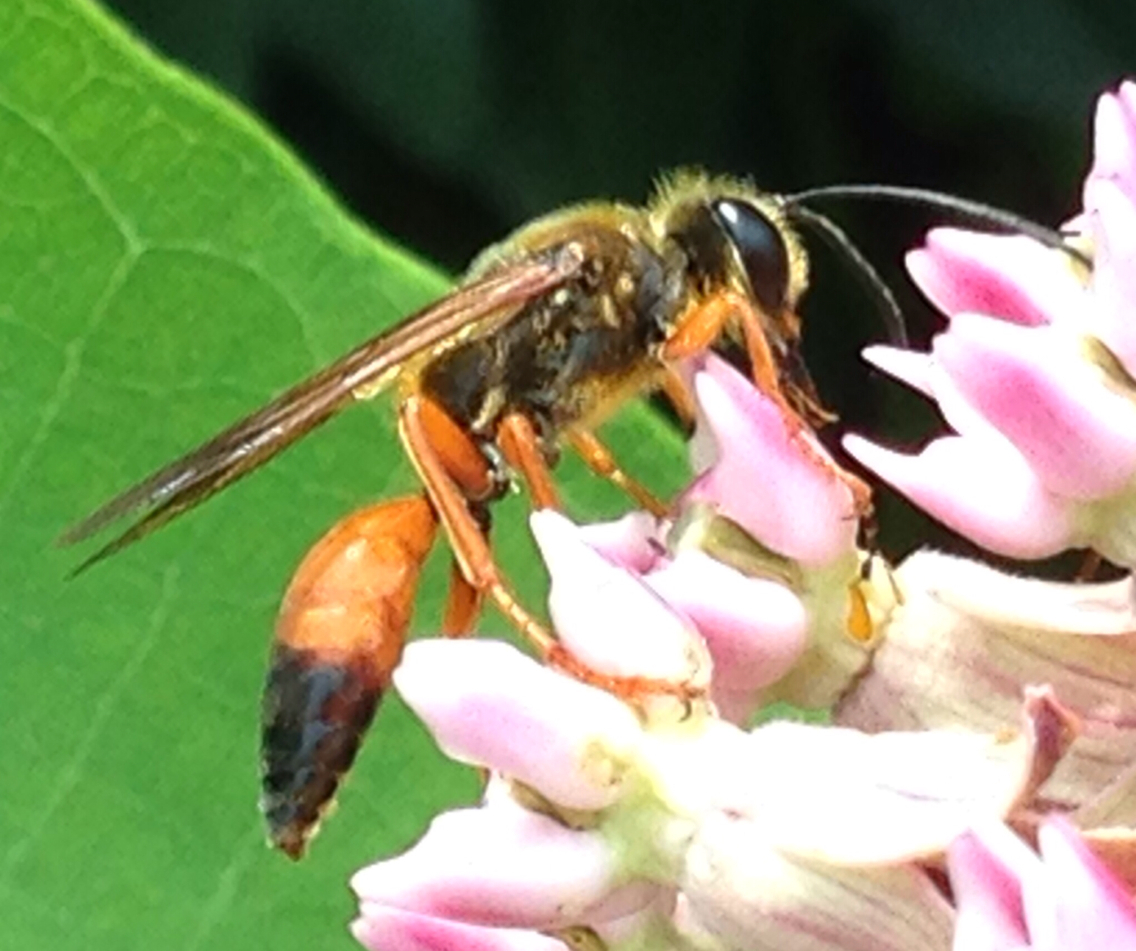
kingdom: Animalia
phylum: Arthropoda
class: Insecta
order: Hymenoptera
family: Sphecidae
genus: Sphex
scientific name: Sphex ichneumoneus
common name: Great golden digger wasp
